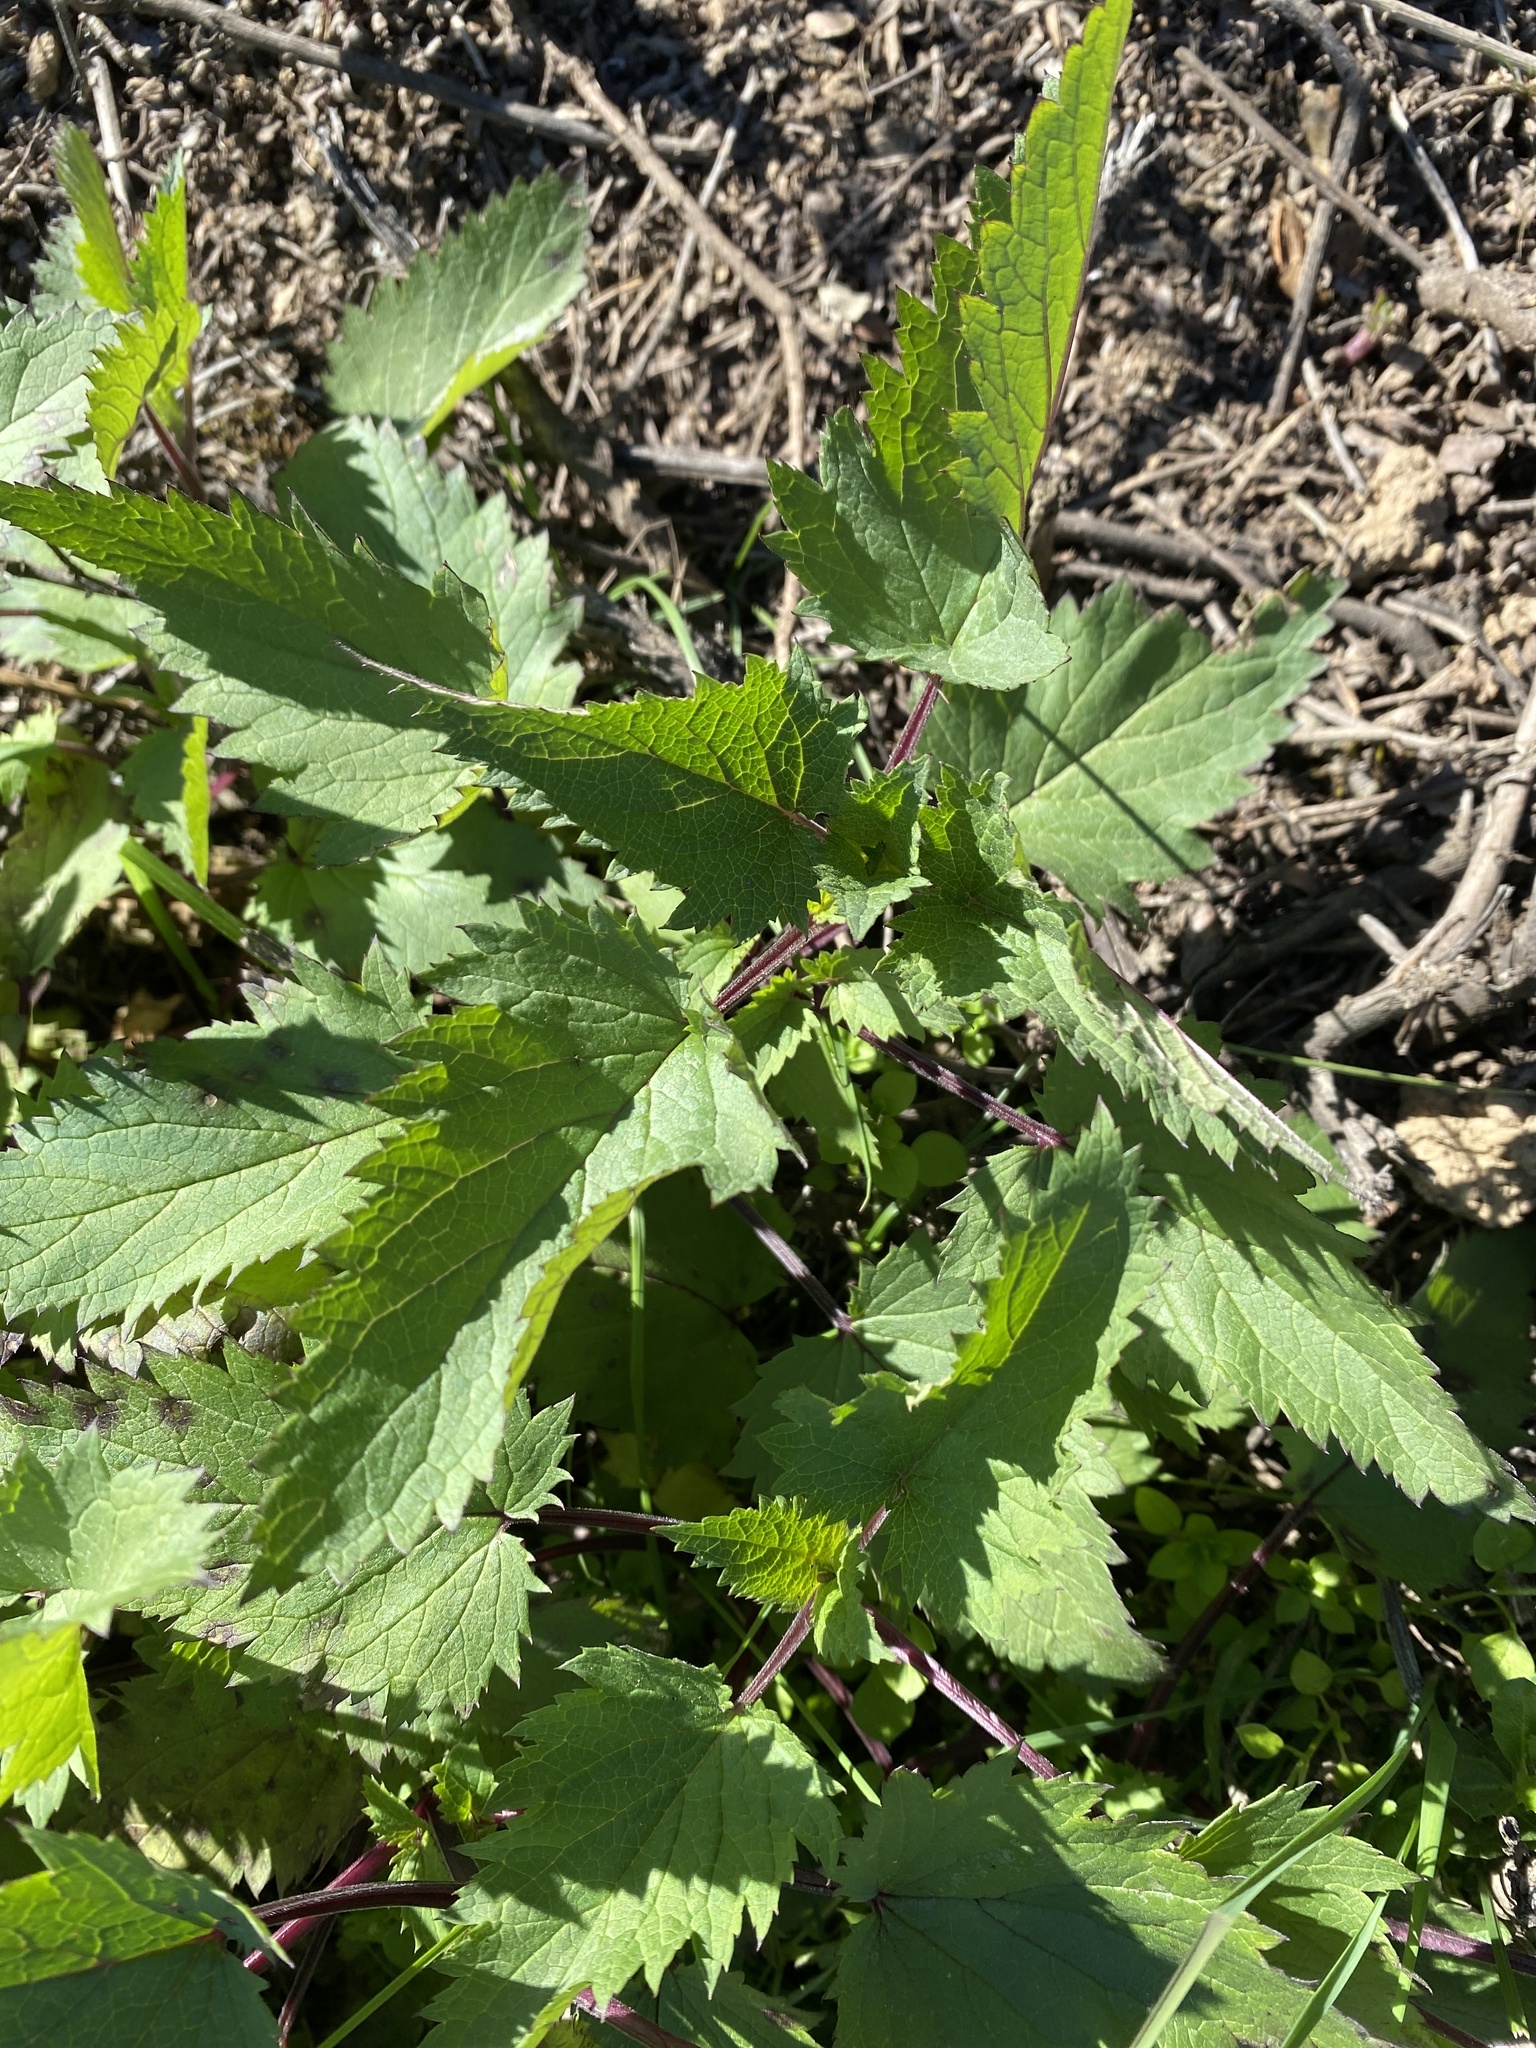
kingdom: Plantae
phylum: Tracheophyta
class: Magnoliopsida
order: Lamiales
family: Scrophulariaceae
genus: Scrophularia
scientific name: Scrophularia californica
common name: California figwort
